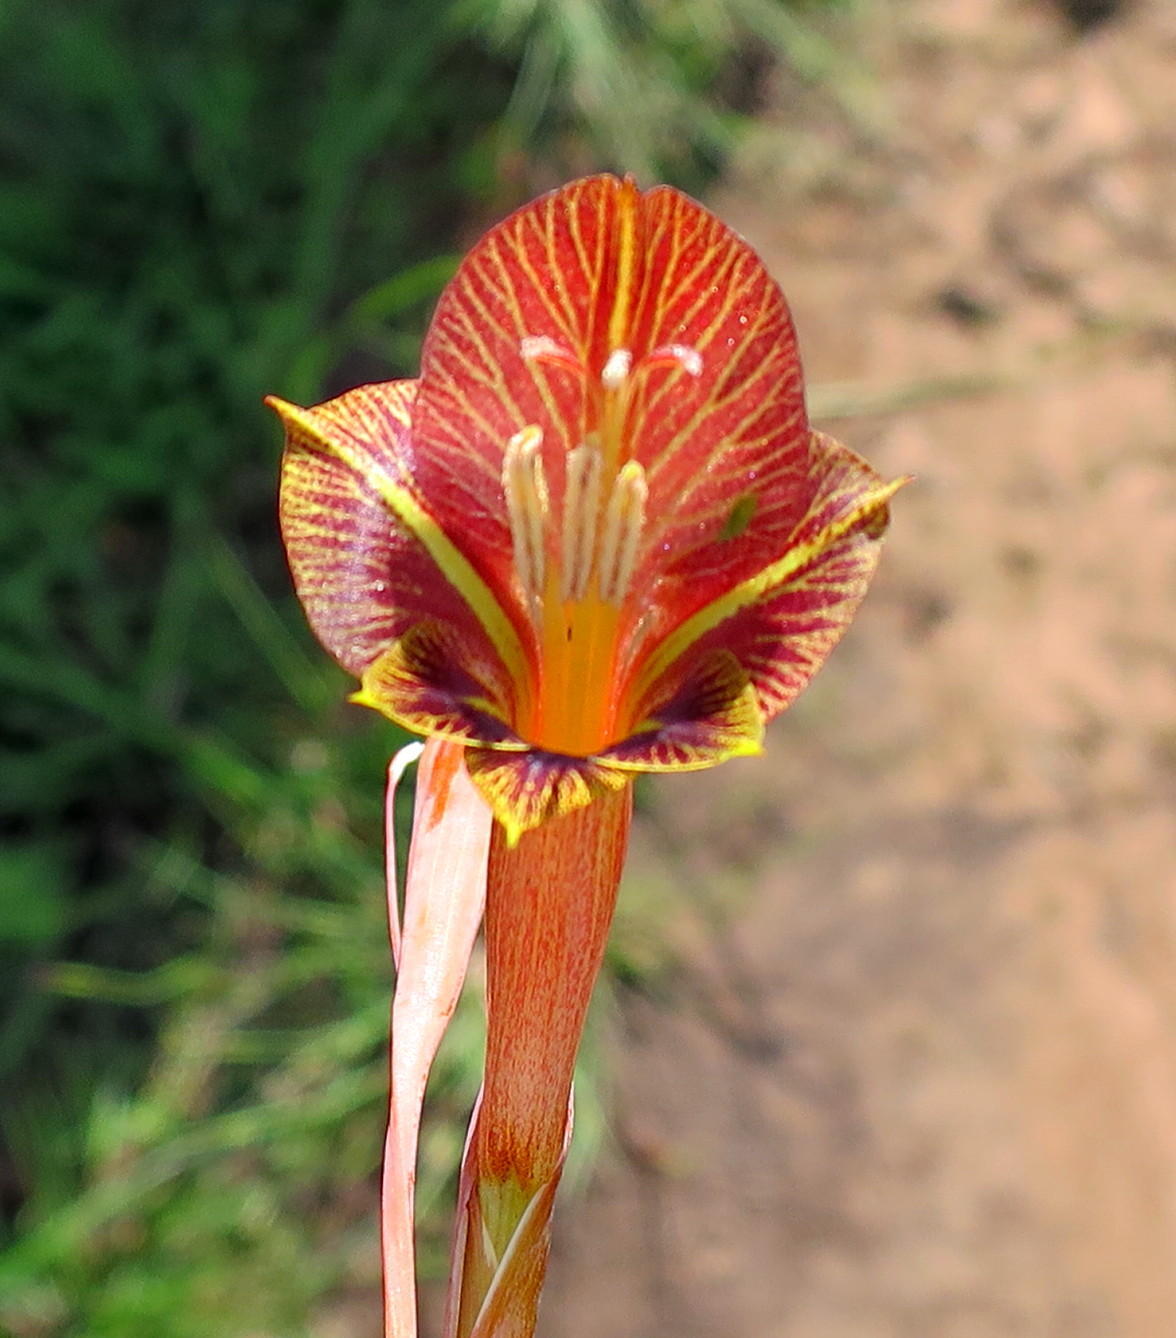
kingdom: Plantae
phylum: Tracheophyta
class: Liliopsida
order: Asparagales
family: Iridaceae
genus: Gladiolus
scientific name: Gladiolus fourcadei
